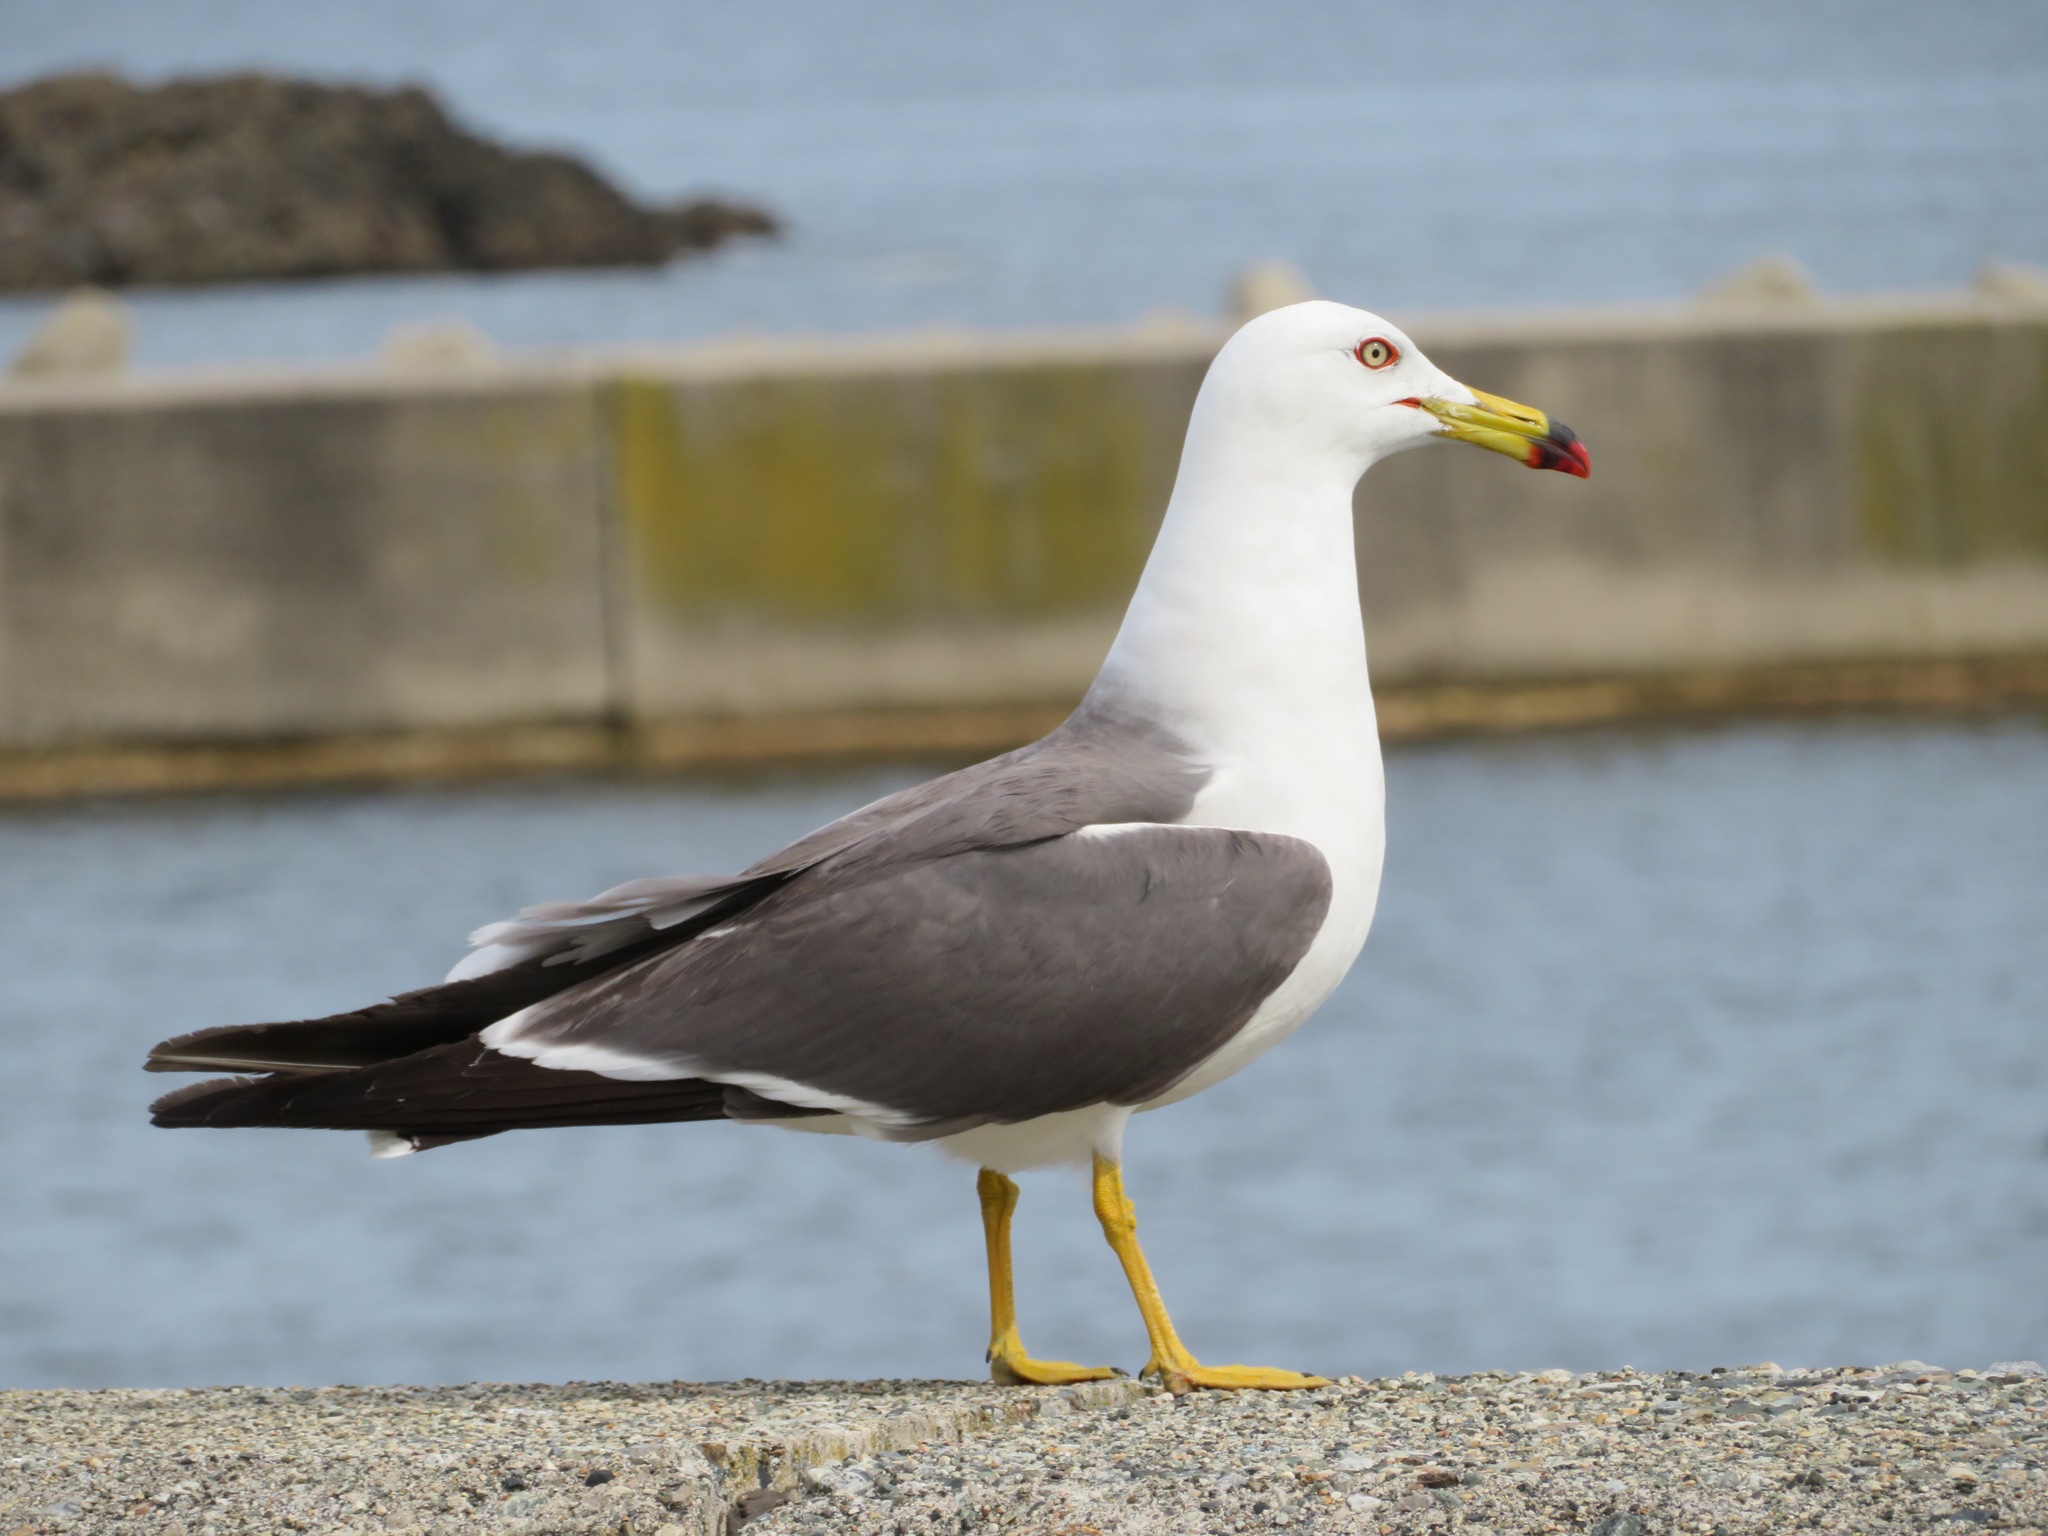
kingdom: Animalia
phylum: Chordata
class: Aves
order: Charadriiformes
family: Laridae
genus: Larus
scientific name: Larus crassirostris
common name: Black-tailed gull
